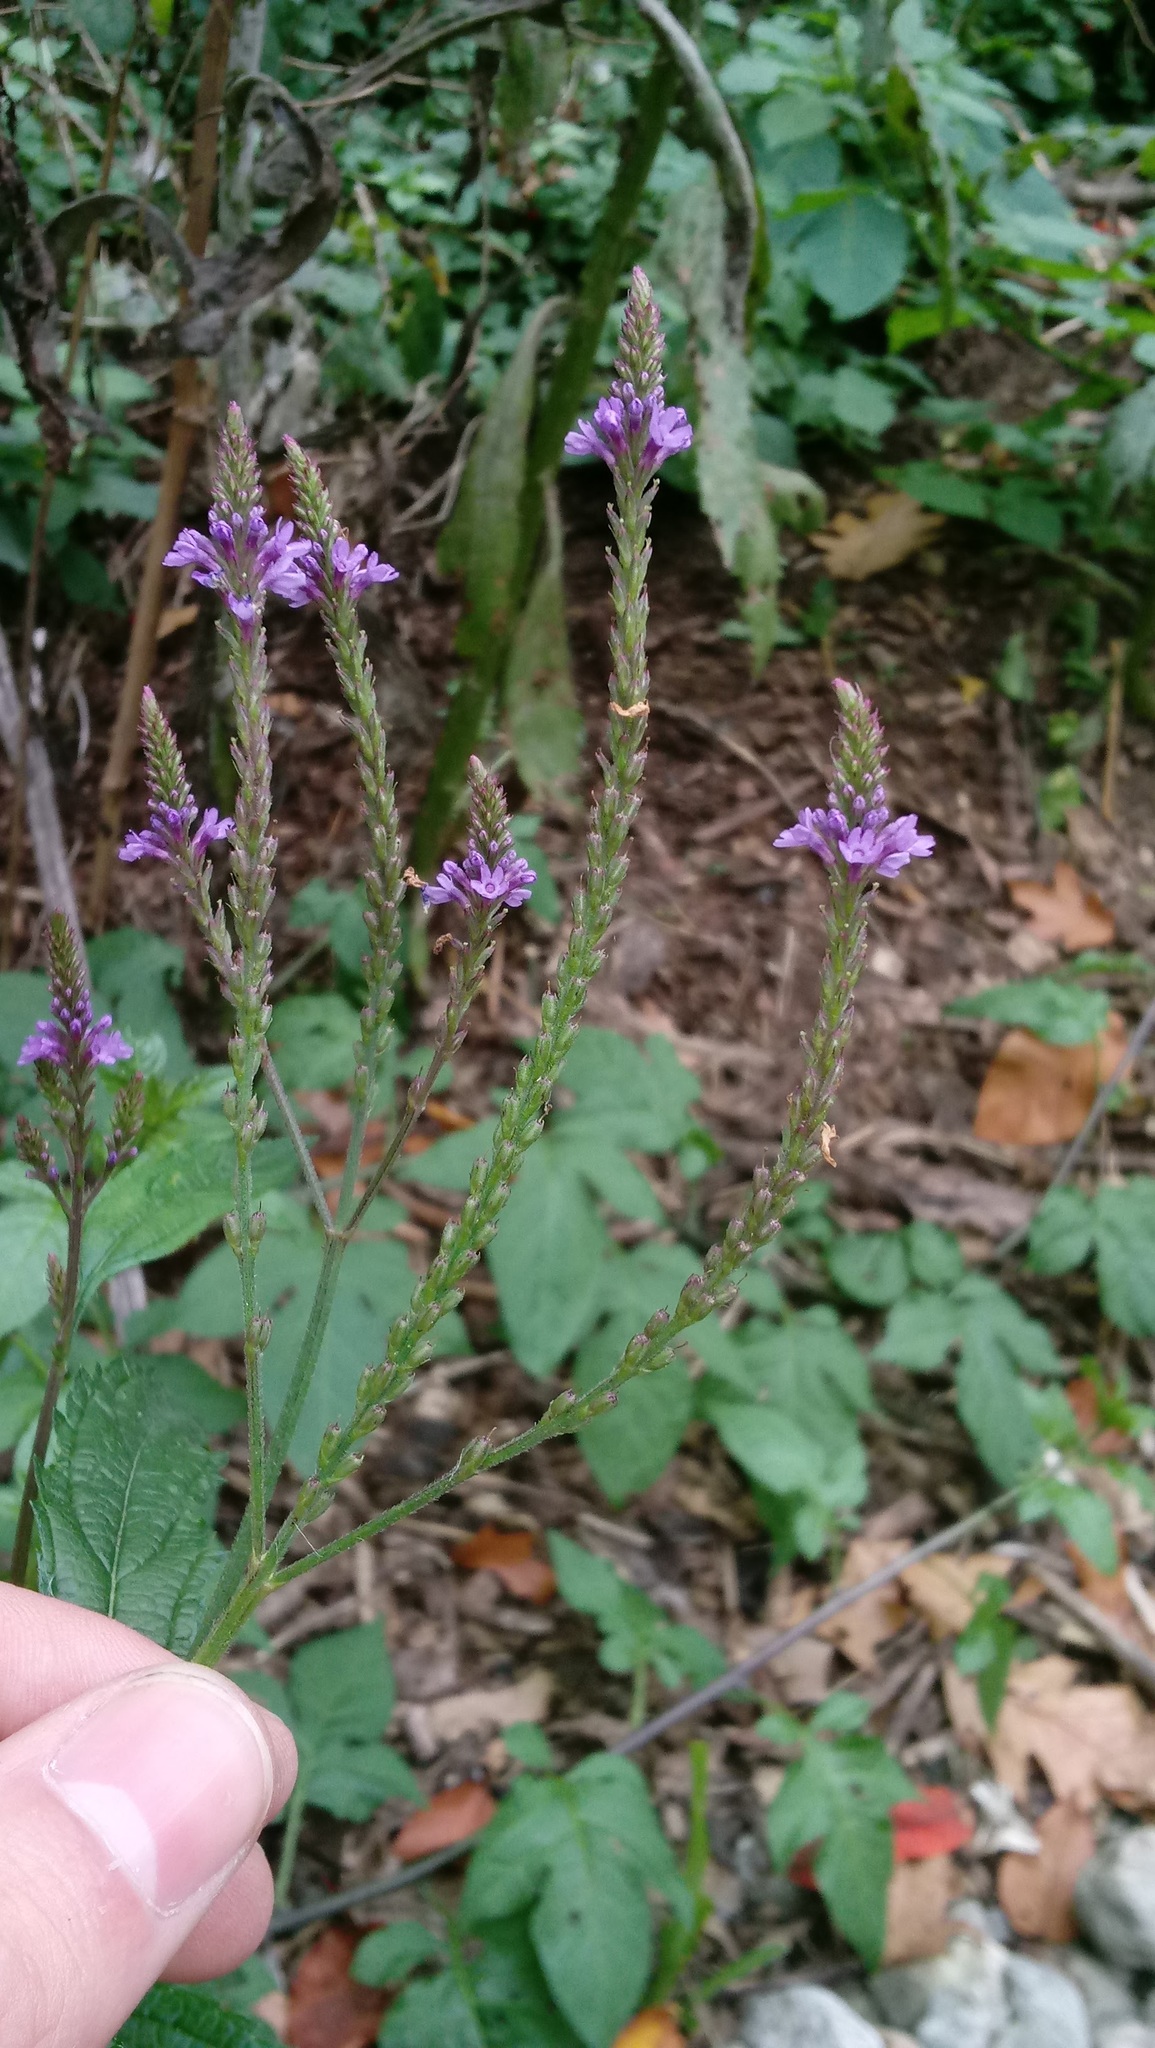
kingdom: Plantae
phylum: Tracheophyta
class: Magnoliopsida
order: Lamiales
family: Verbenaceae
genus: Verbena
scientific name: Verbena hastata
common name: American blue vervain
